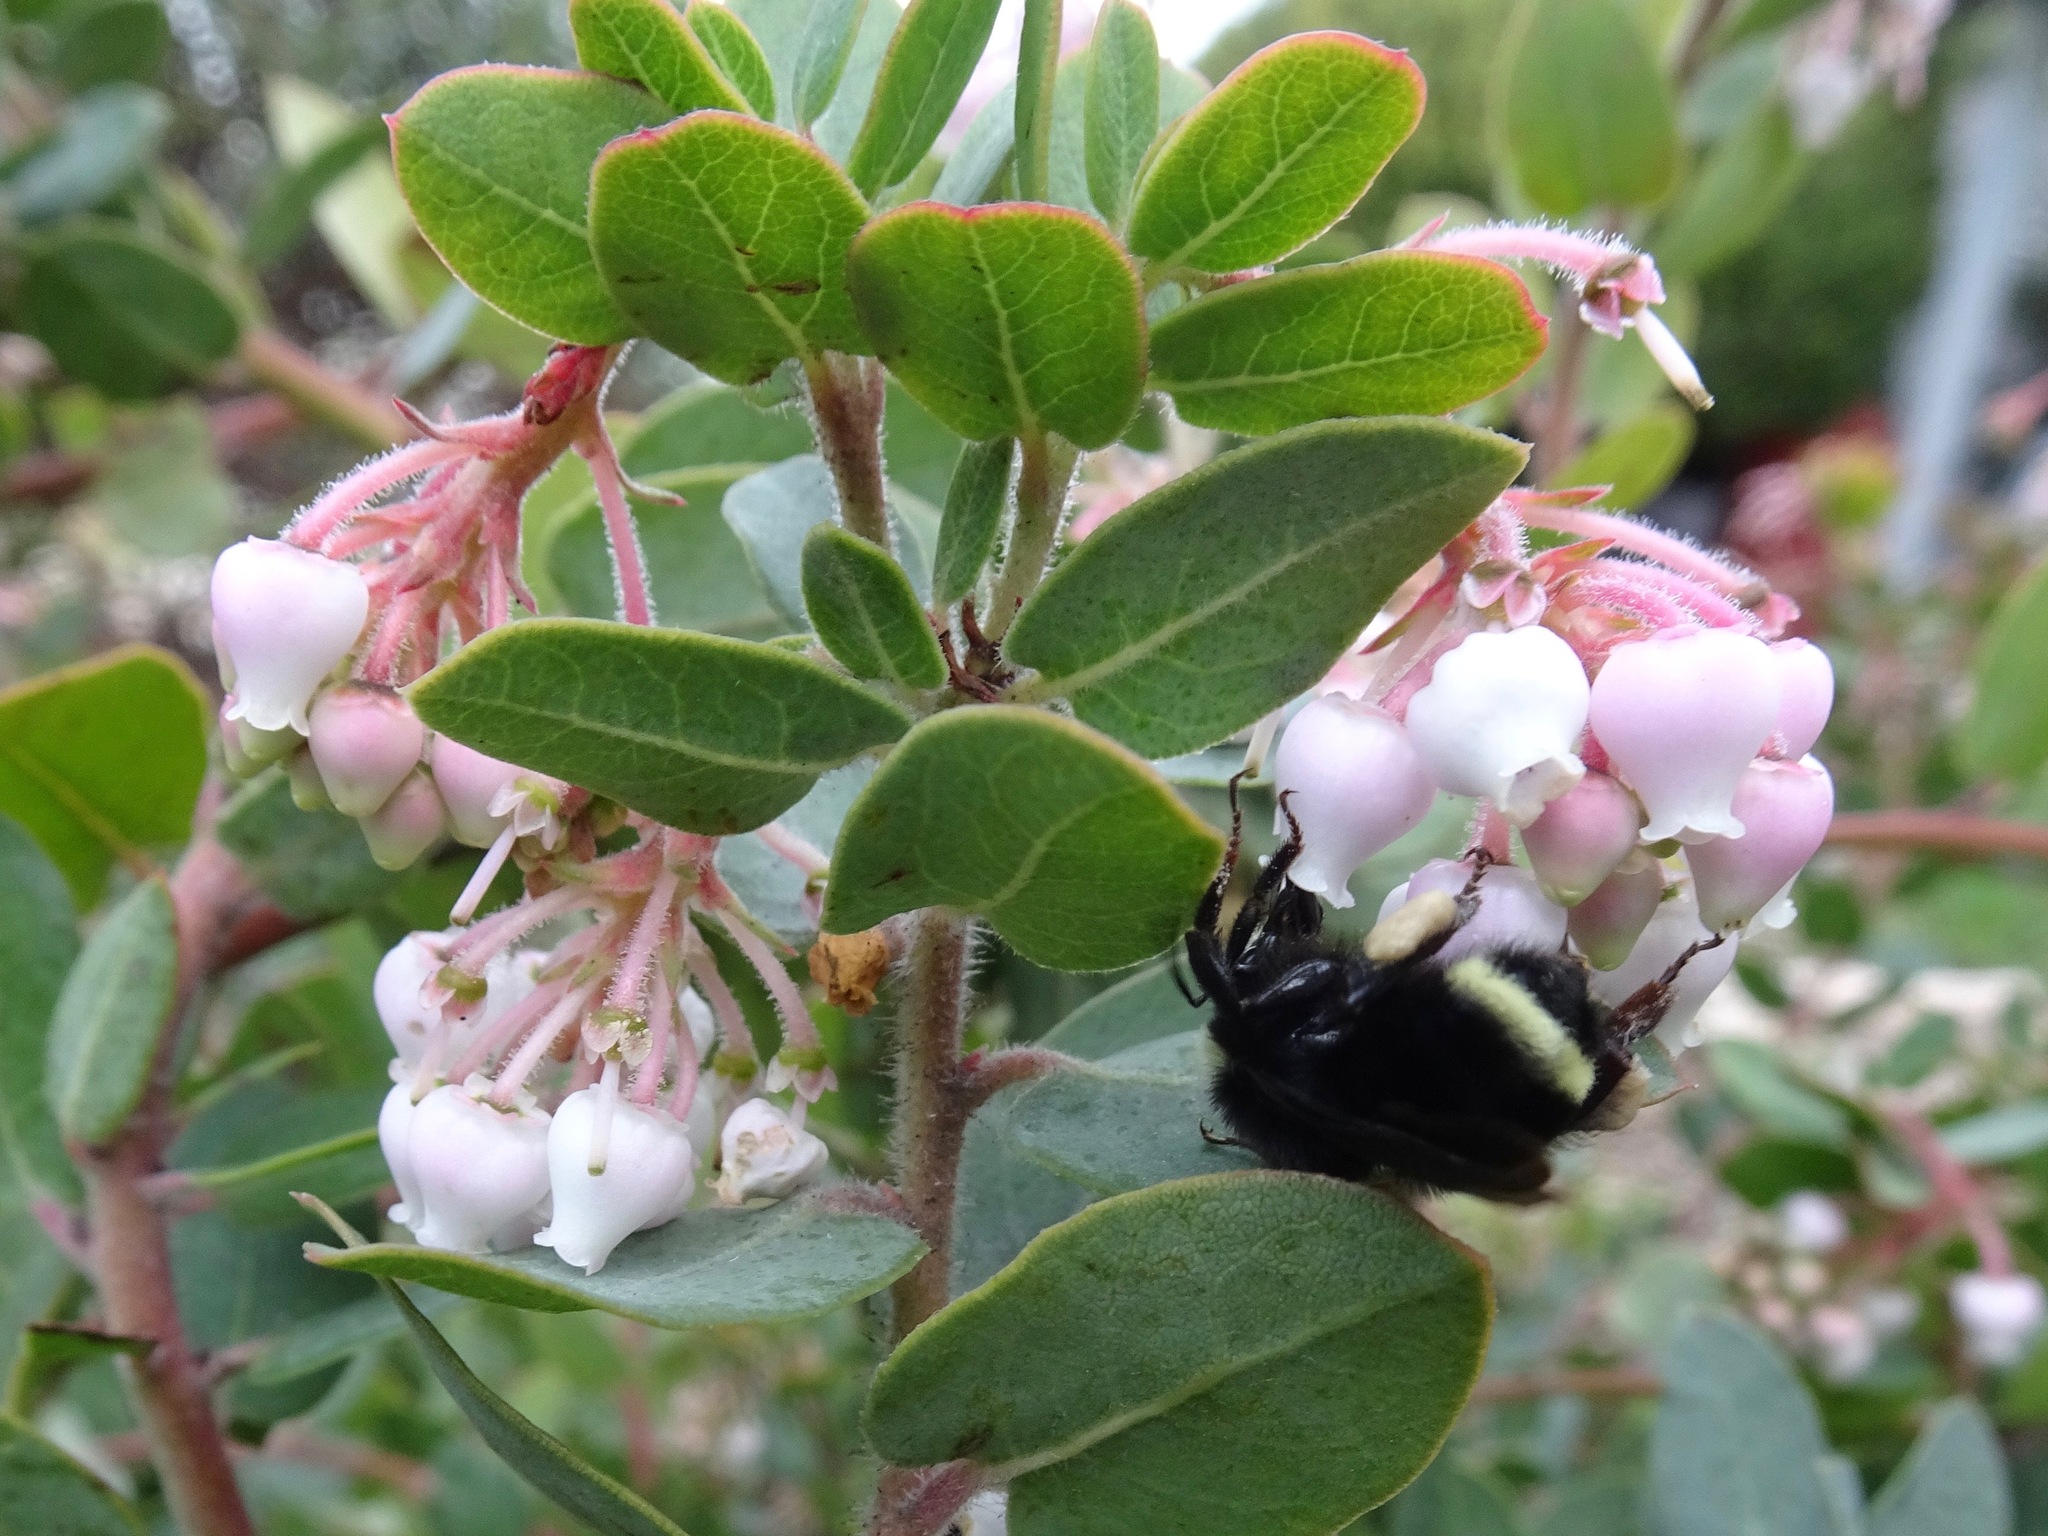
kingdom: Animalia
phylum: Arthropoda
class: Insecta
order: Hymenoptera
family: Apidae
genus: Bombus
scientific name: Bombus vosnesenskii
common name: Vosnesensky bumble bee
